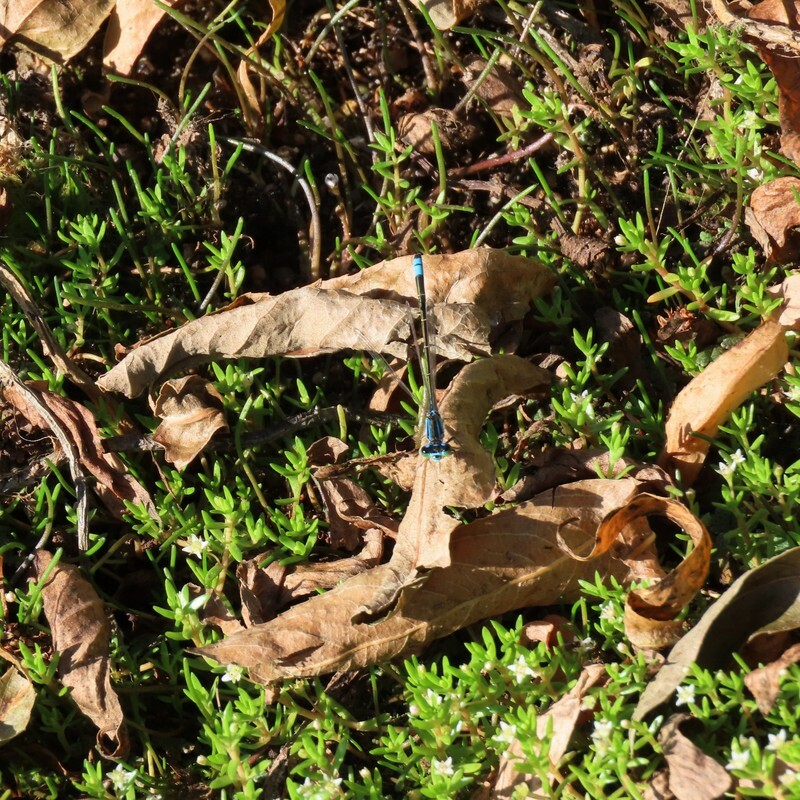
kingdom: Animalia
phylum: Arthropoda
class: Insecta
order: Odonata
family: Coenagrionidae
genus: Ischnura
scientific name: Ischnura heterosticta
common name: Common bluetail
